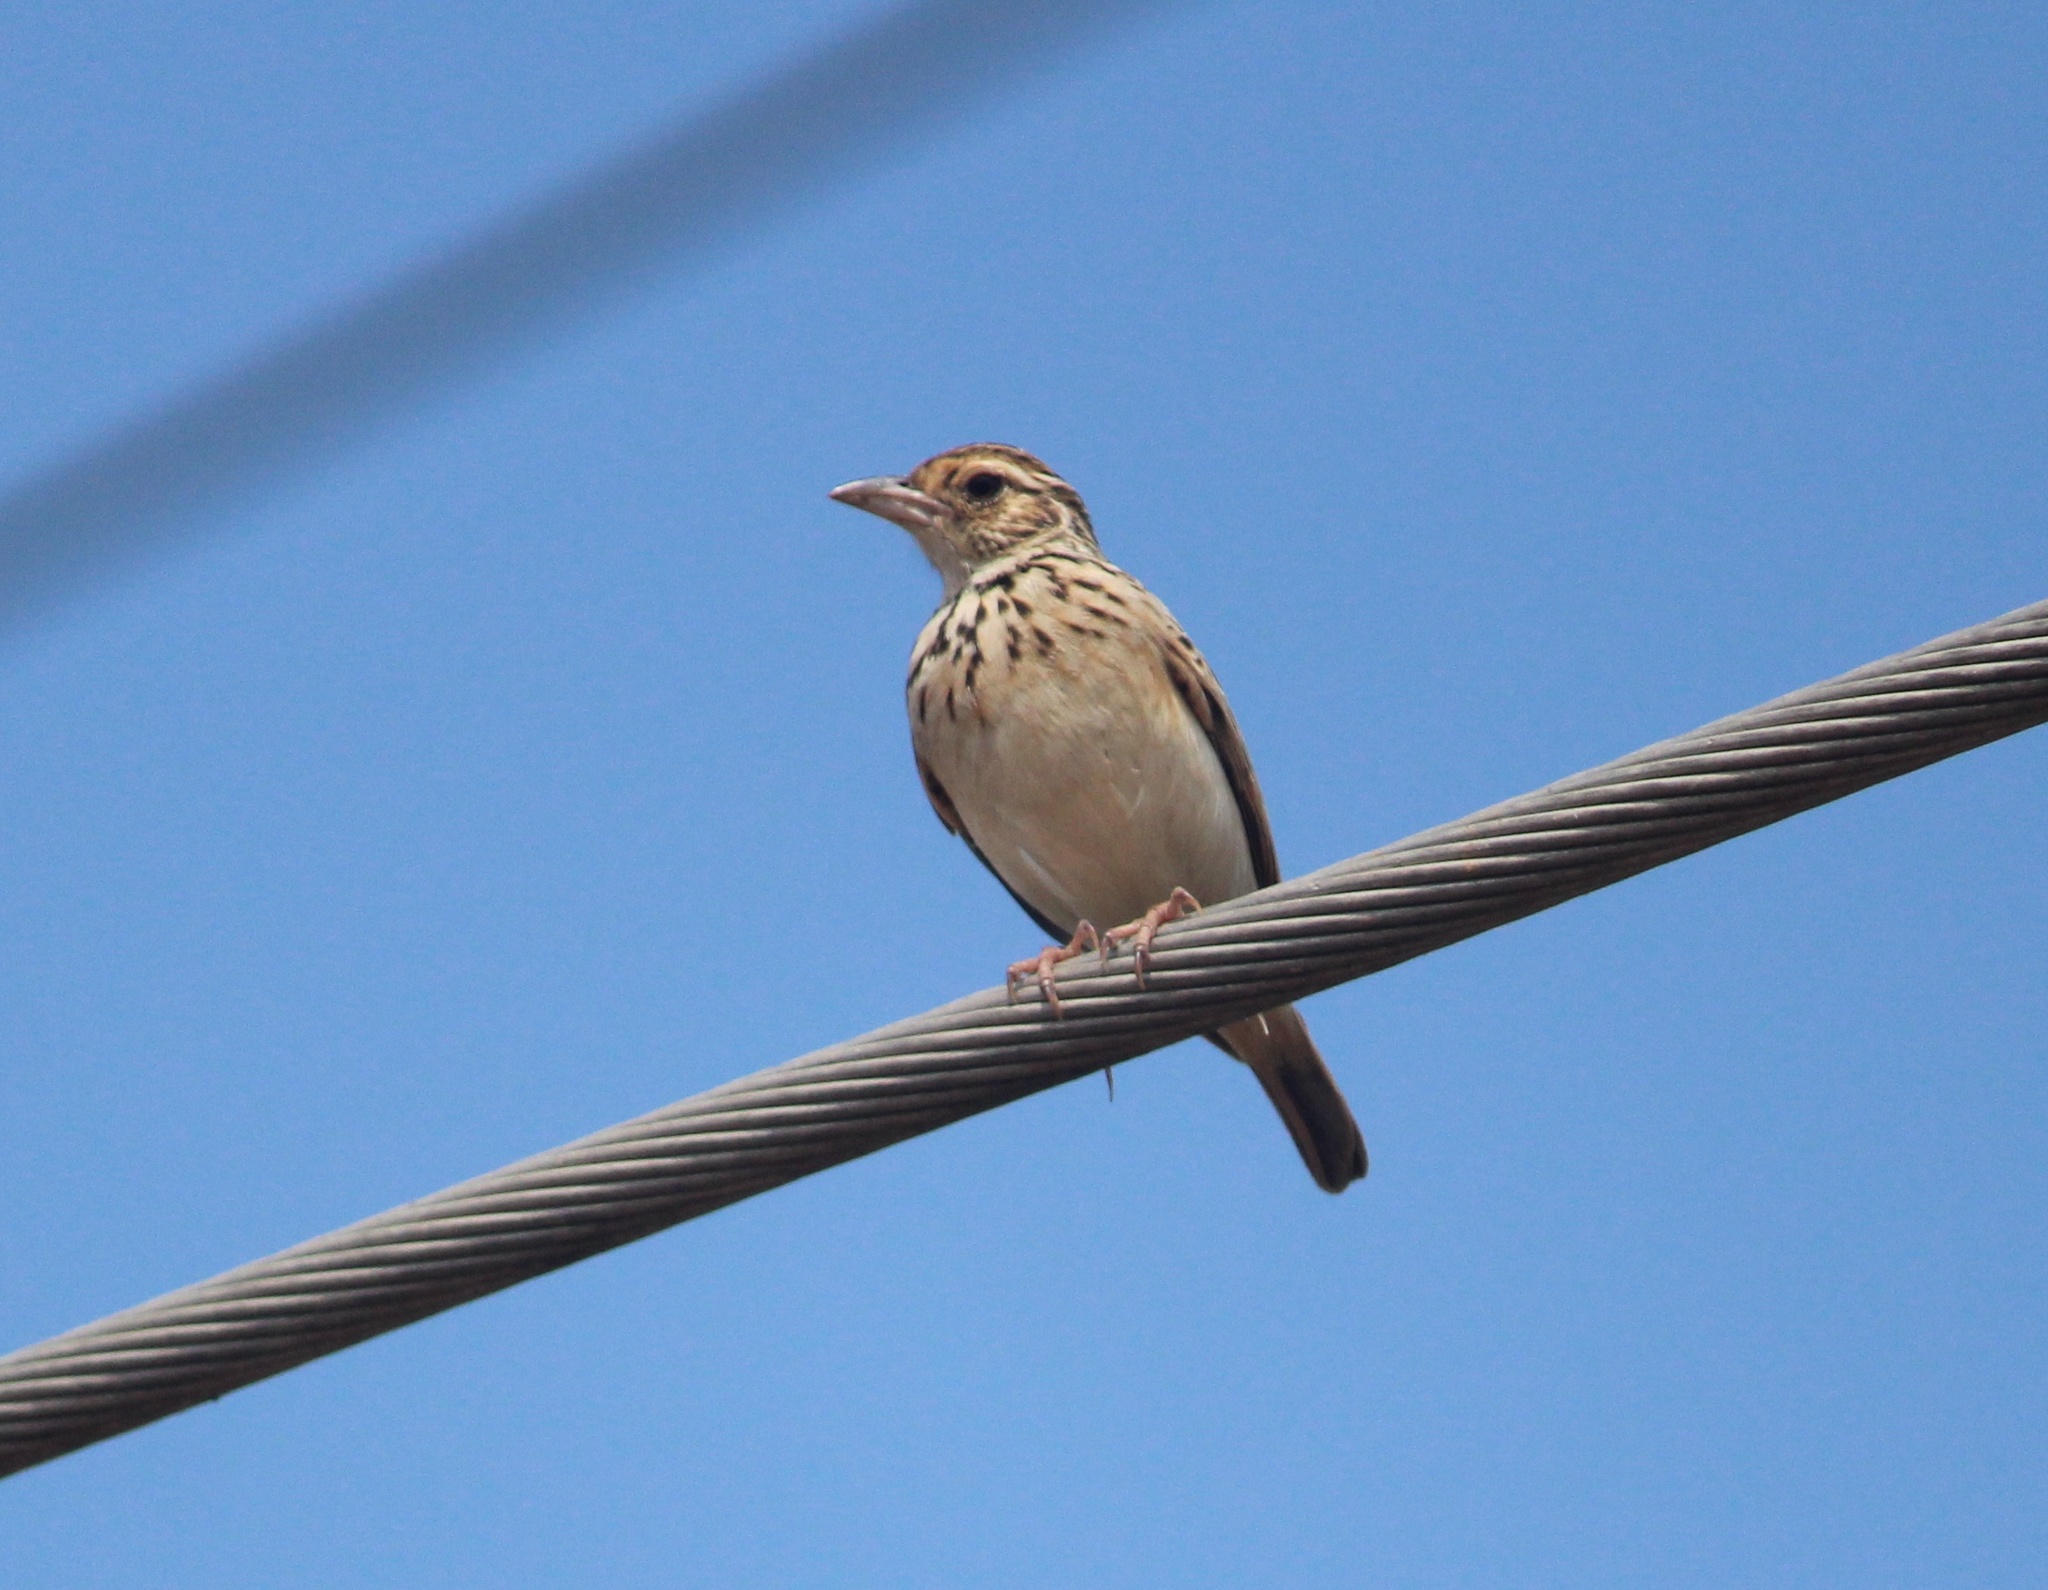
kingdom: Animalia
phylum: Chordata
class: Aves
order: Passeriformes
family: Alaudidae
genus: Mirafra
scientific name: Mirafra affinis
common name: Jerdon's bushlark
